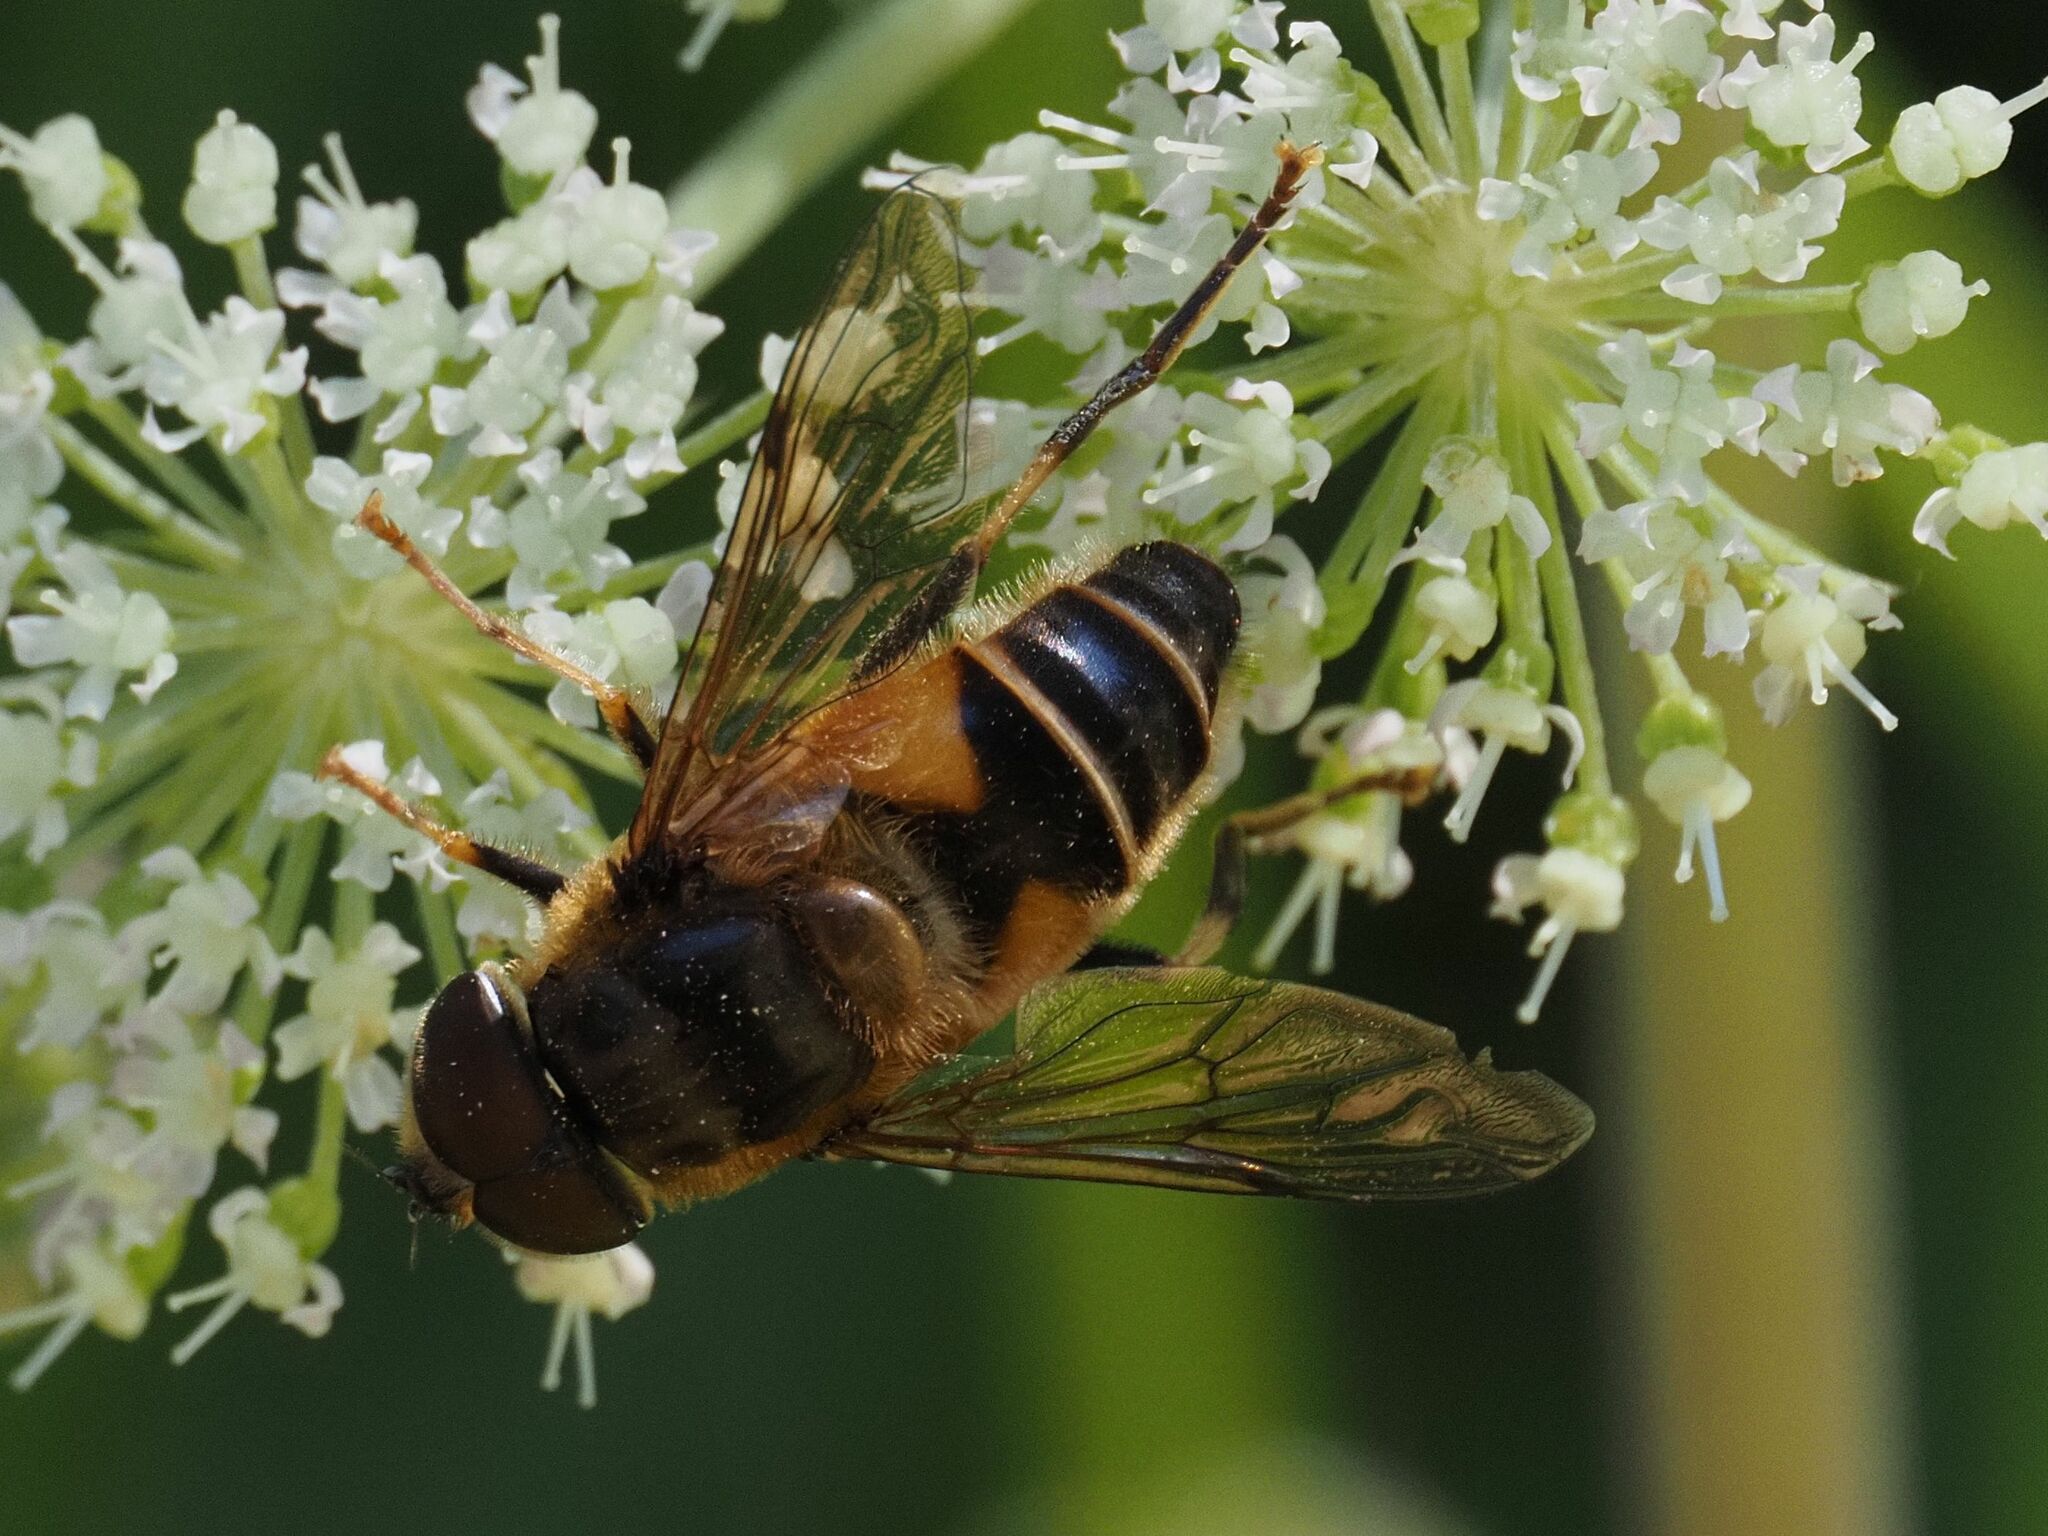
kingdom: Animalia
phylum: Arthropoda
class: Insecta
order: Diptera
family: Syrphidae
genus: Eristalis
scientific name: Eristalis pertinax
